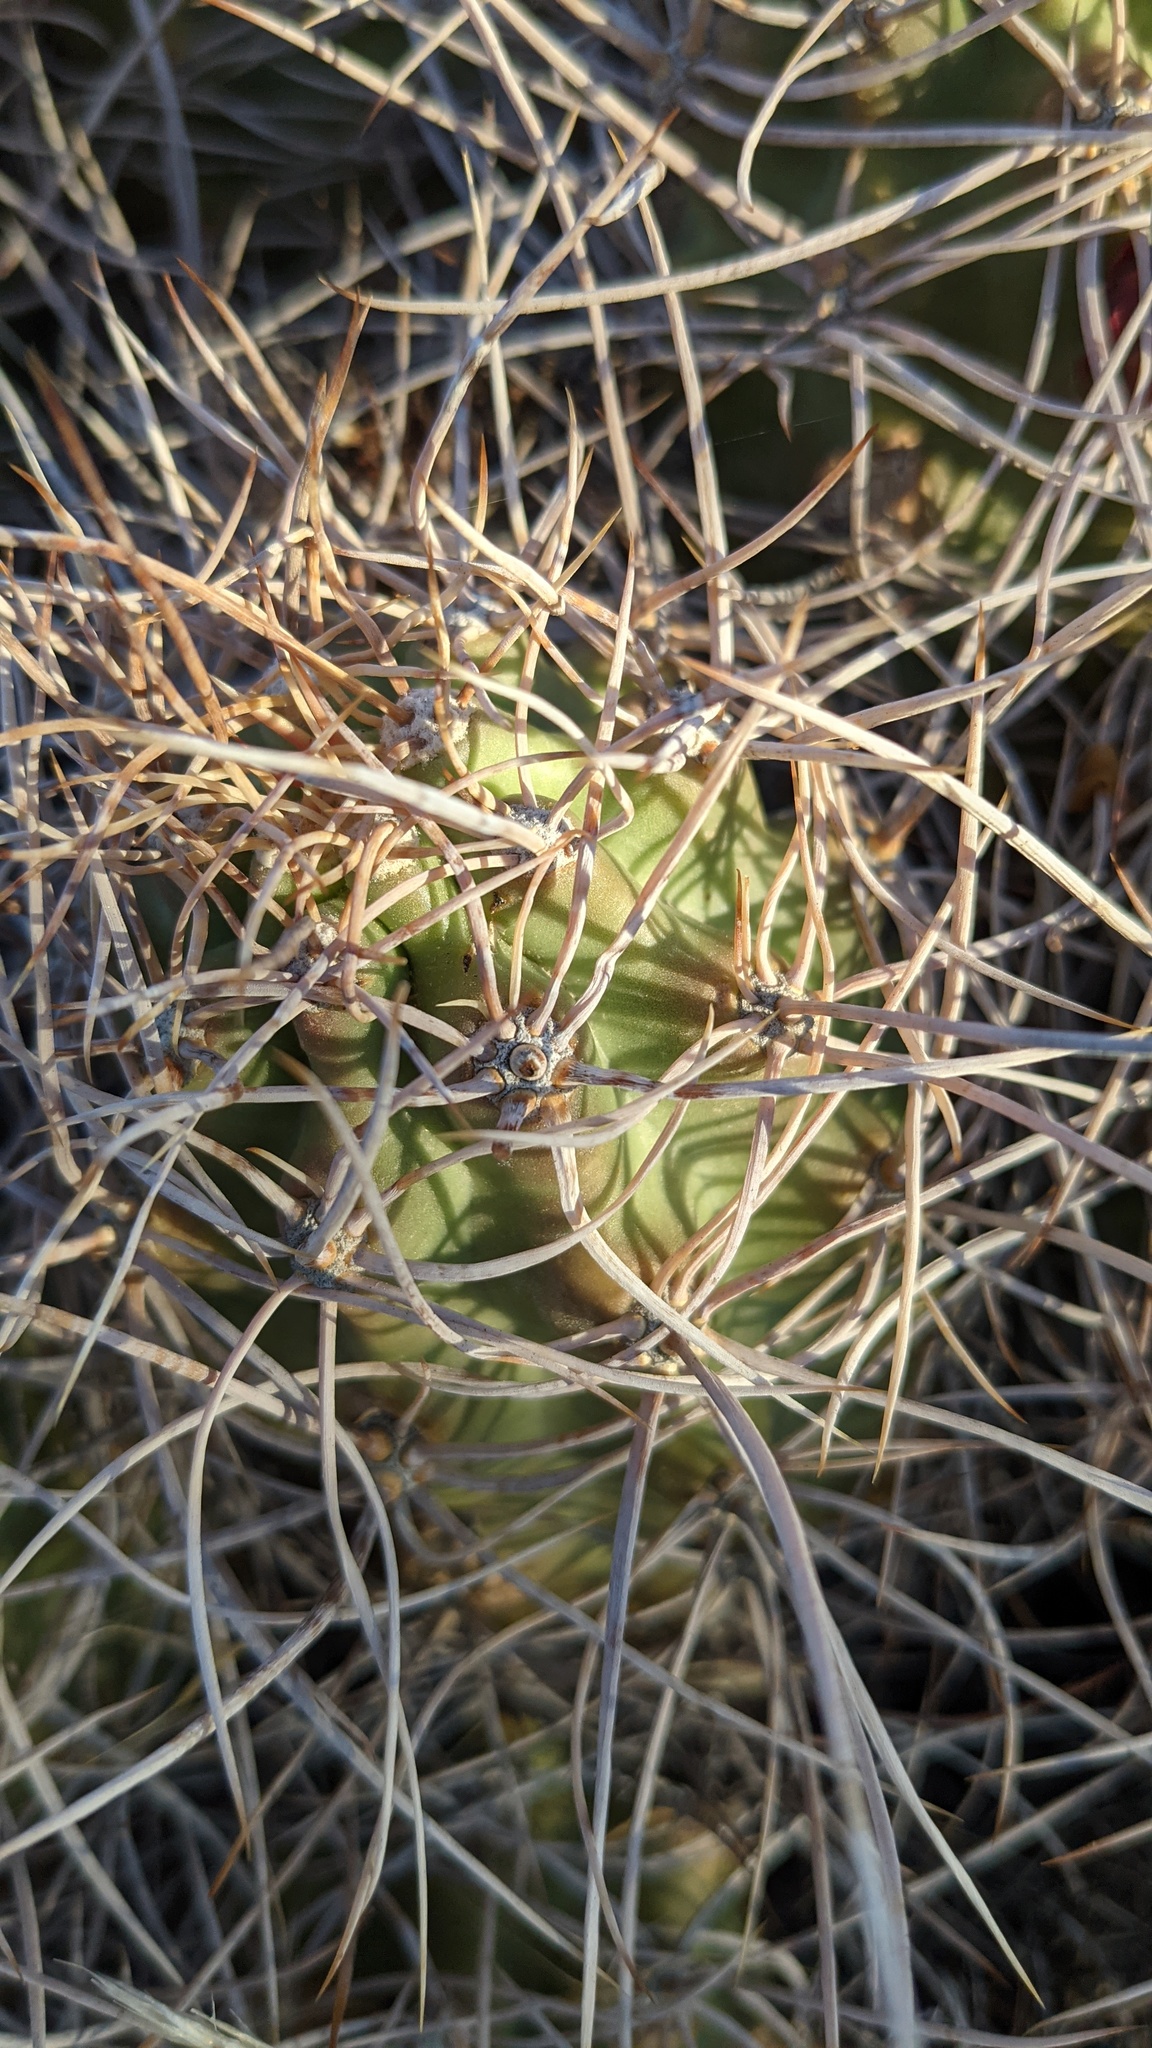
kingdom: Plantae
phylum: Tracheophyta
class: Magnoliopsida
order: Caryophyllales
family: Cactaceae
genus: Echinocereus
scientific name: Echinocereus triglochidiatus
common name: Claretcup hedgehog
